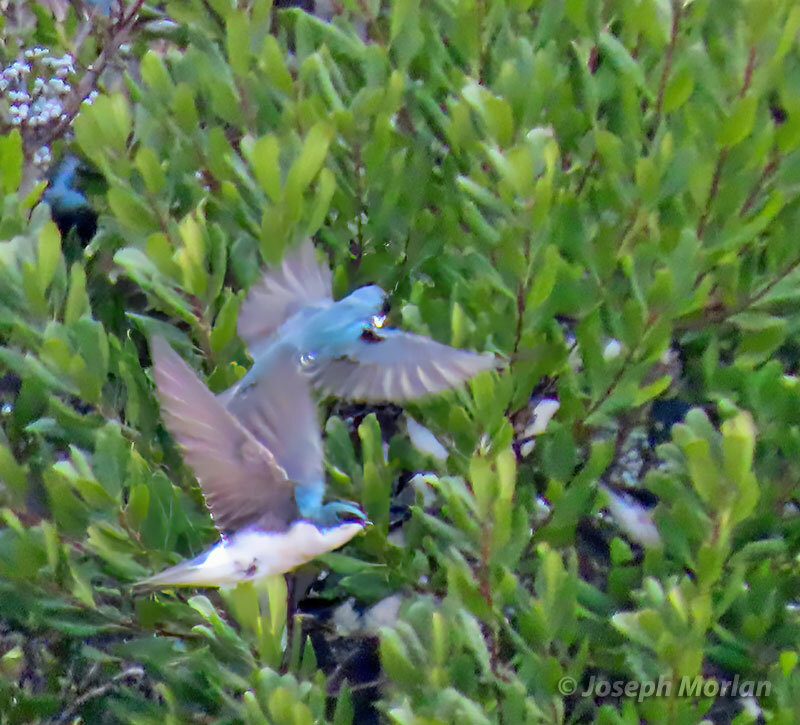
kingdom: Animalia
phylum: Chordata
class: Aves
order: Passeriformes
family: Hirundinidae
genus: Tachycineta
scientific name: Tachycineta bicolor
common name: Tree swallow
